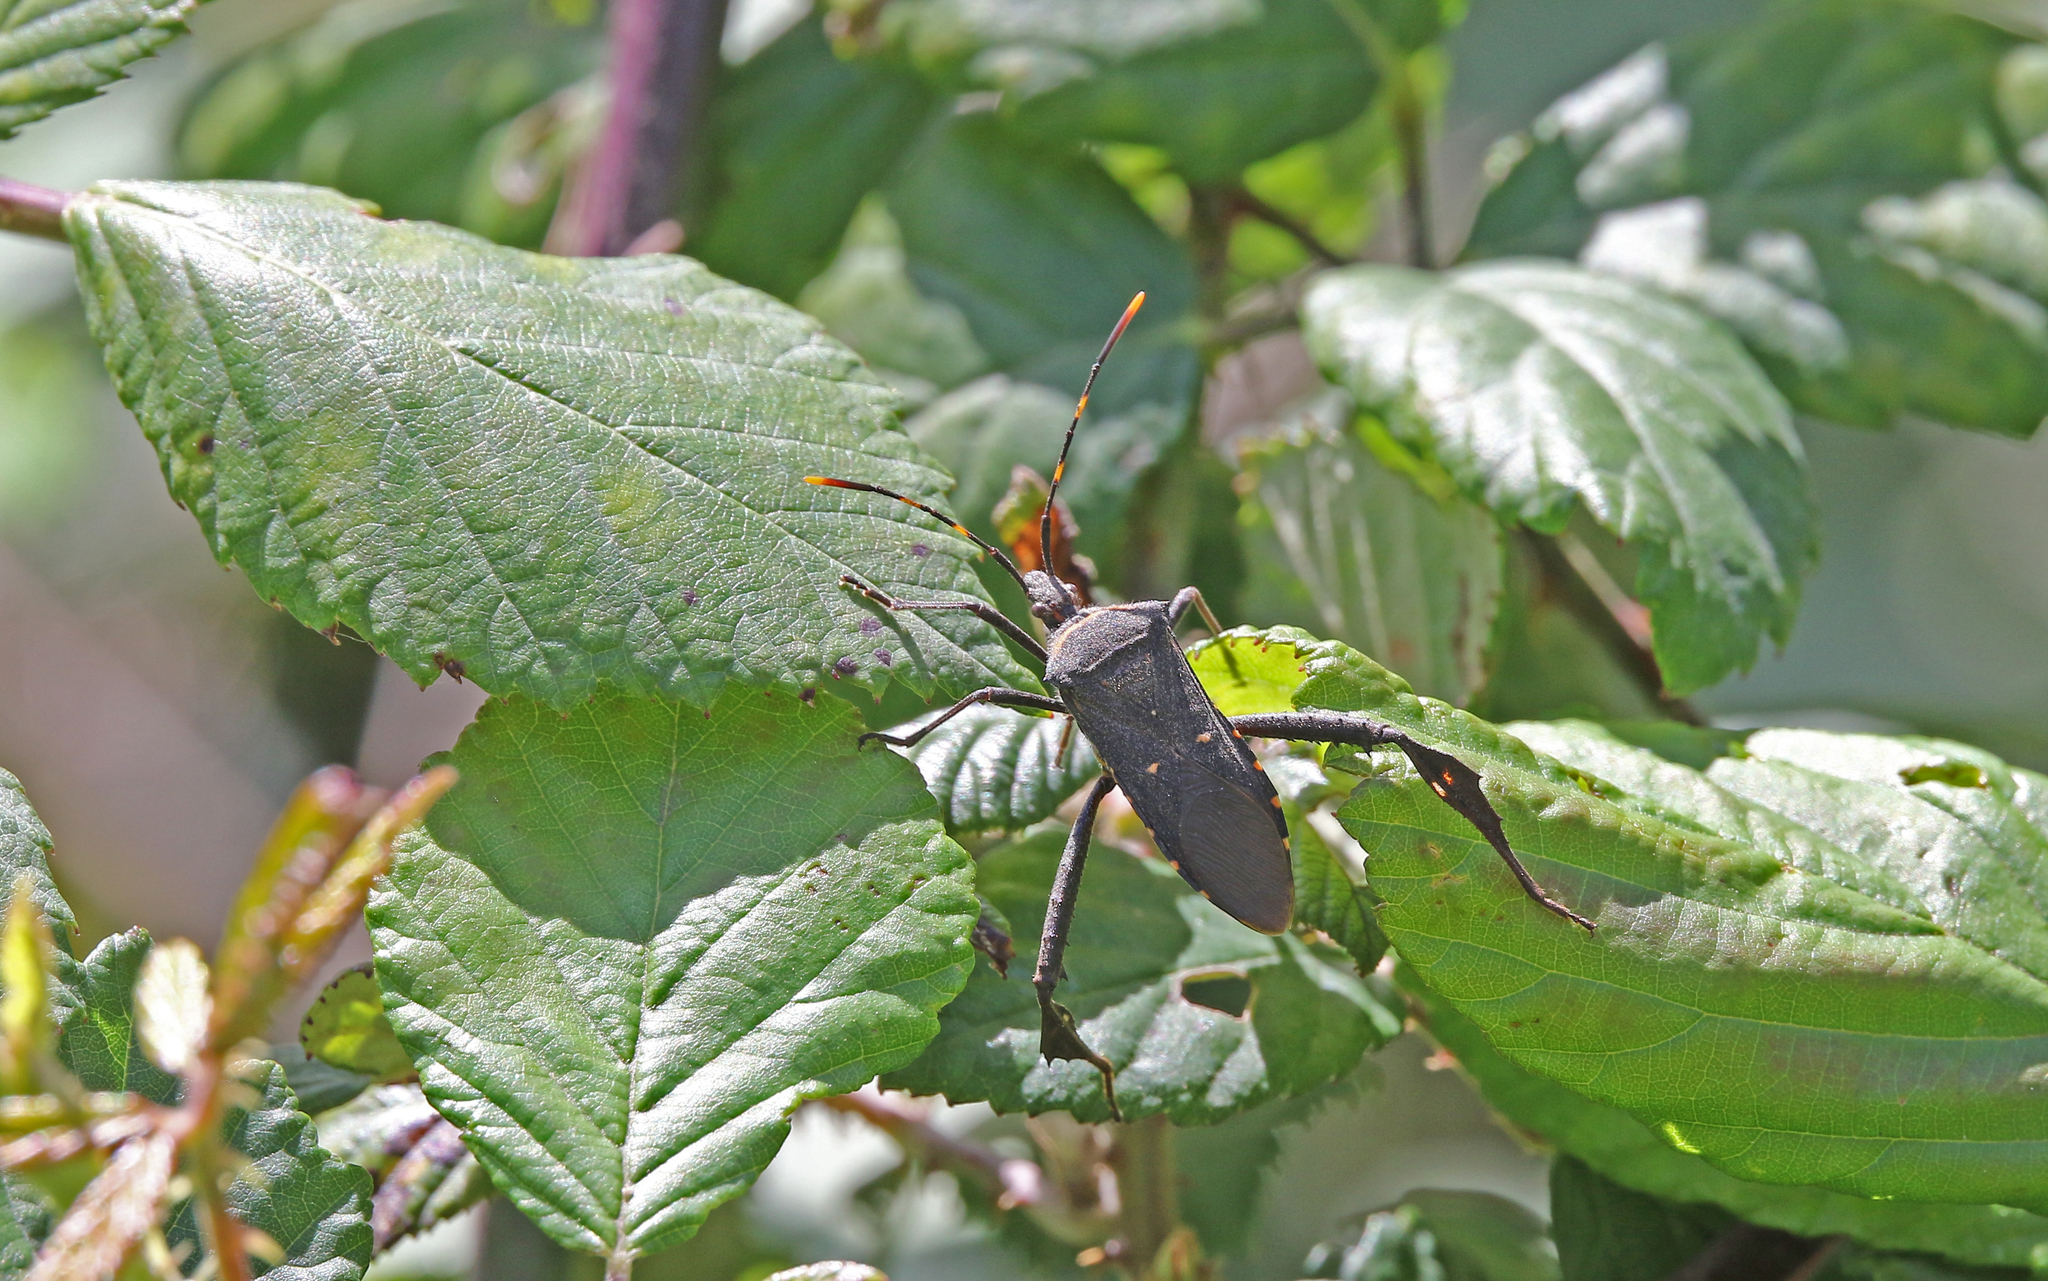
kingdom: Animalia
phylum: Arthropoda
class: Insecta
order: Hemiptera
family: Coreidae
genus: Leptoglossus
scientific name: Leptoglossus gonagra
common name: Citron bug
